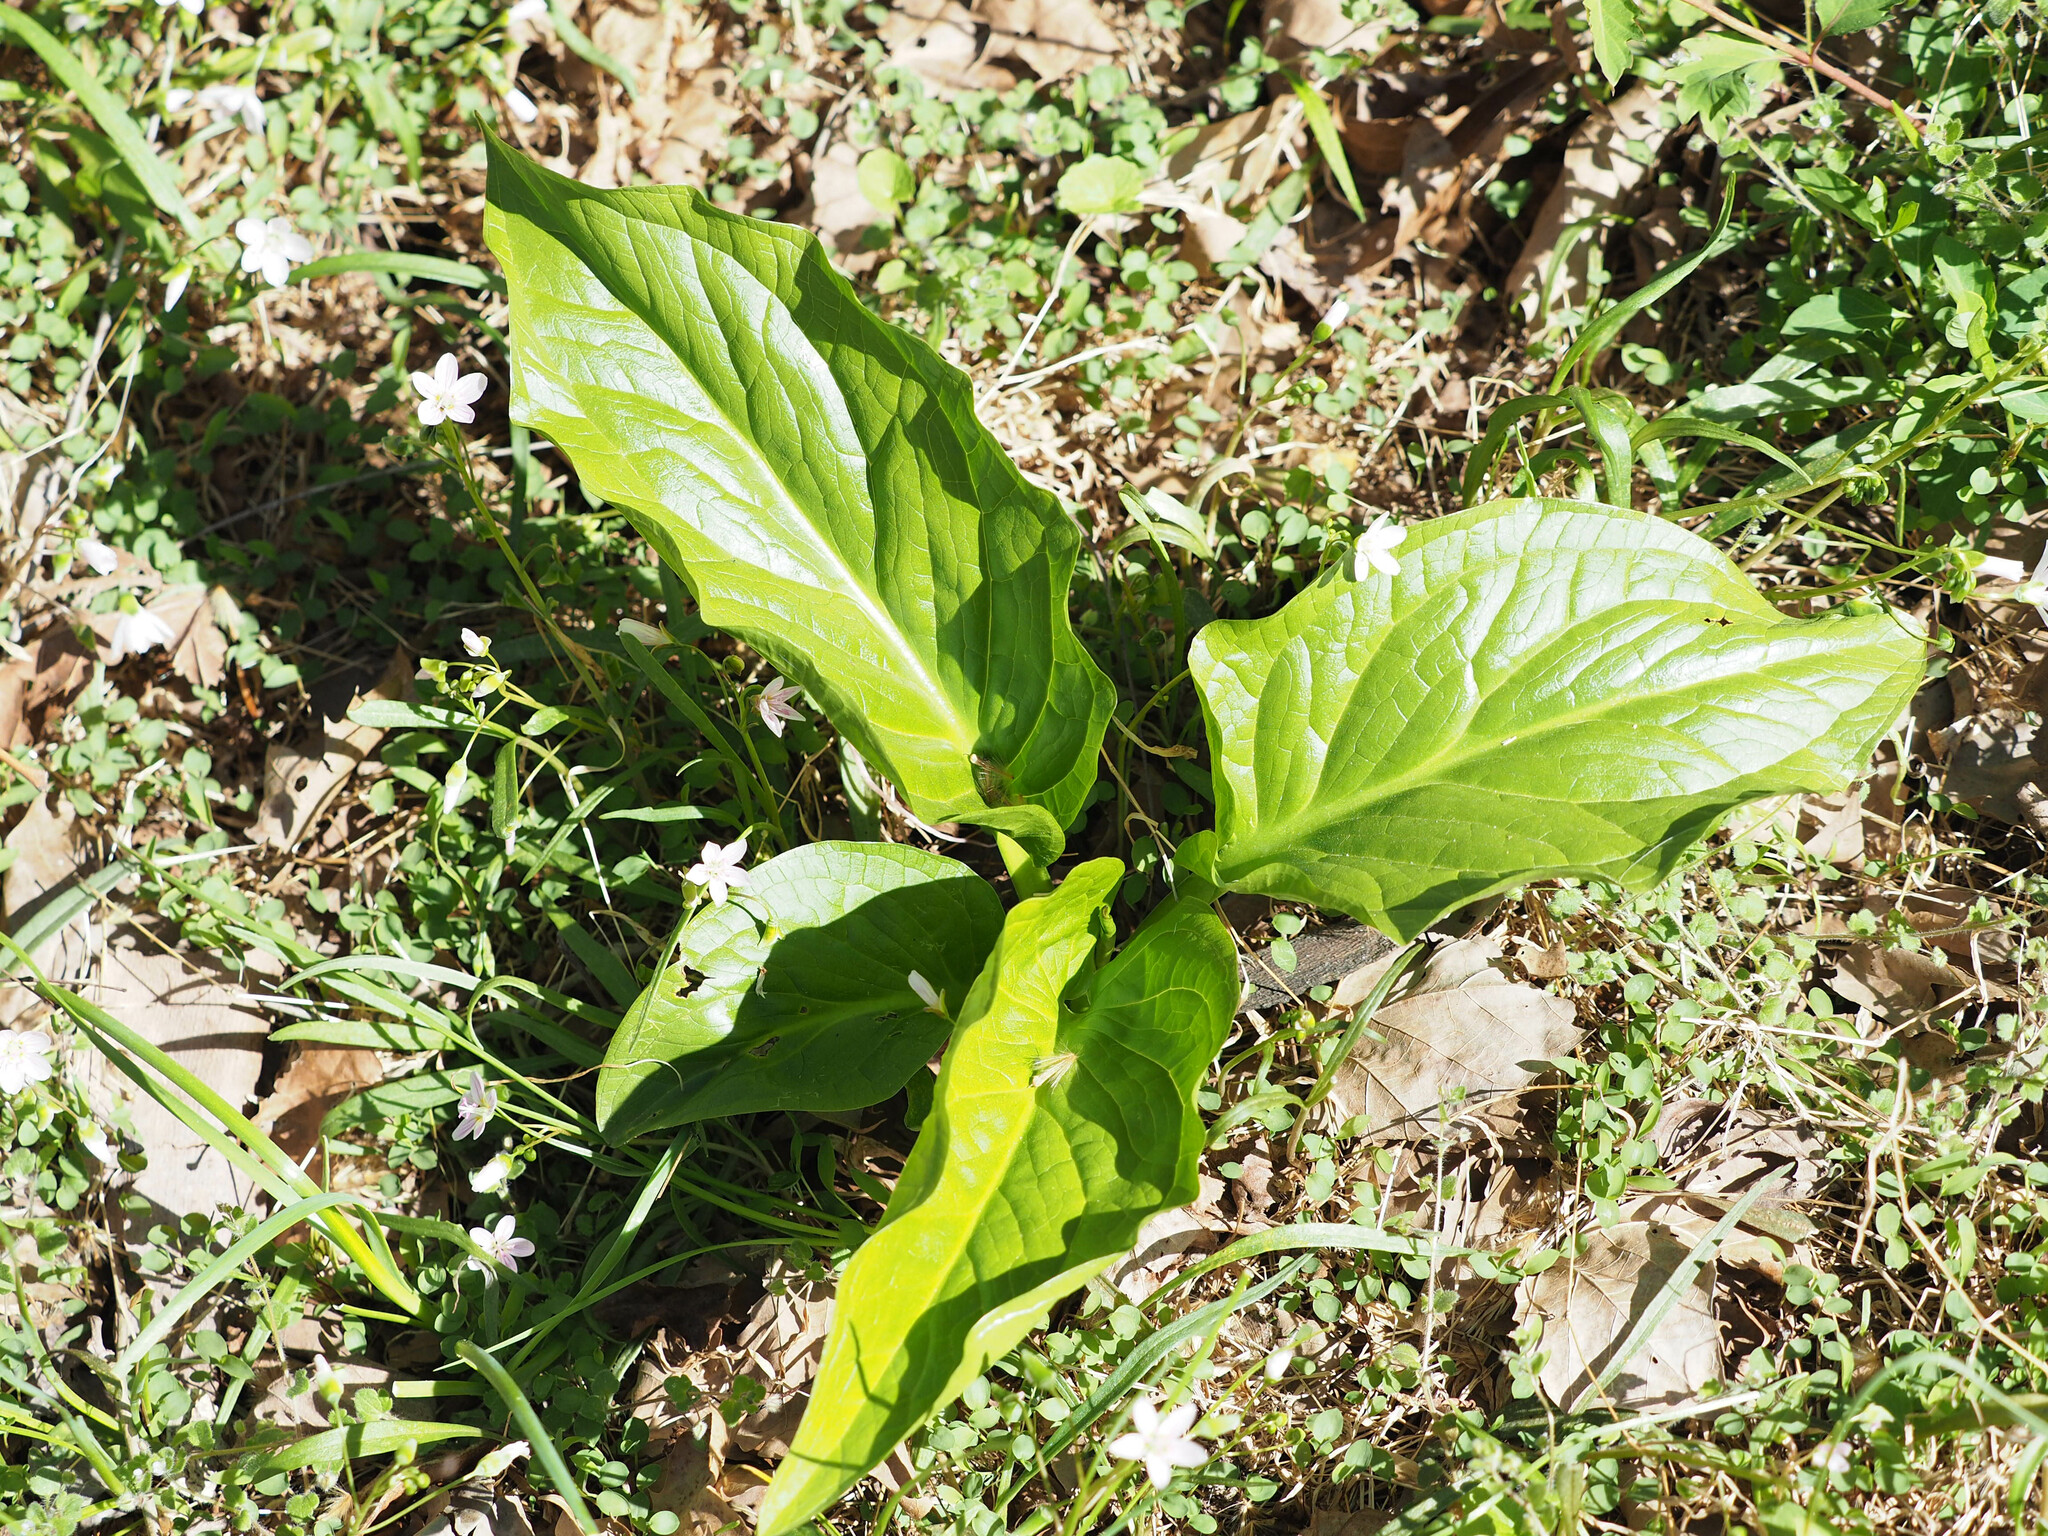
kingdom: Plantae
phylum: Tracheophyta
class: Liliopsida
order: Alismatales
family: Araceae
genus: Symplocarpus
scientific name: Symplocarpus foetidus
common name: Eastern skunk cabbage
